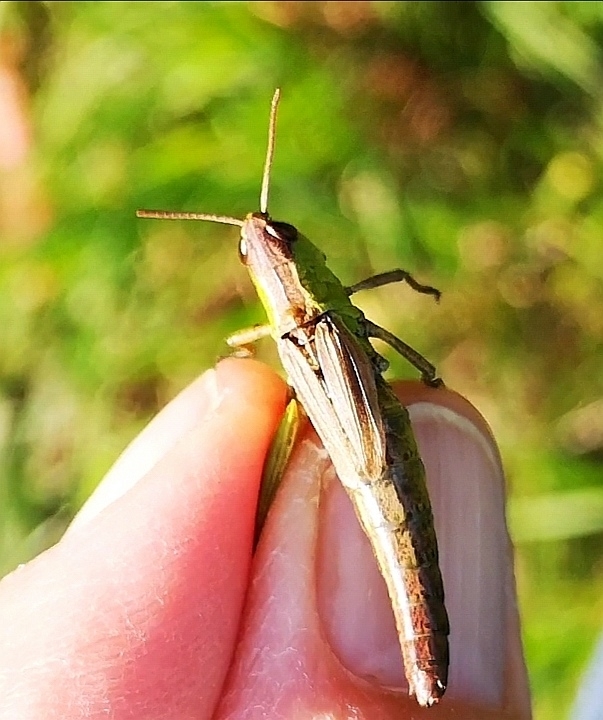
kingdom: Animalia
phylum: Arthropoda
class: Insecta
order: Orthoptera
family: Acrididae
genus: Pseudochorthippus
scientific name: Pseudochorthippus parallelus
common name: Meadow grasshopper
